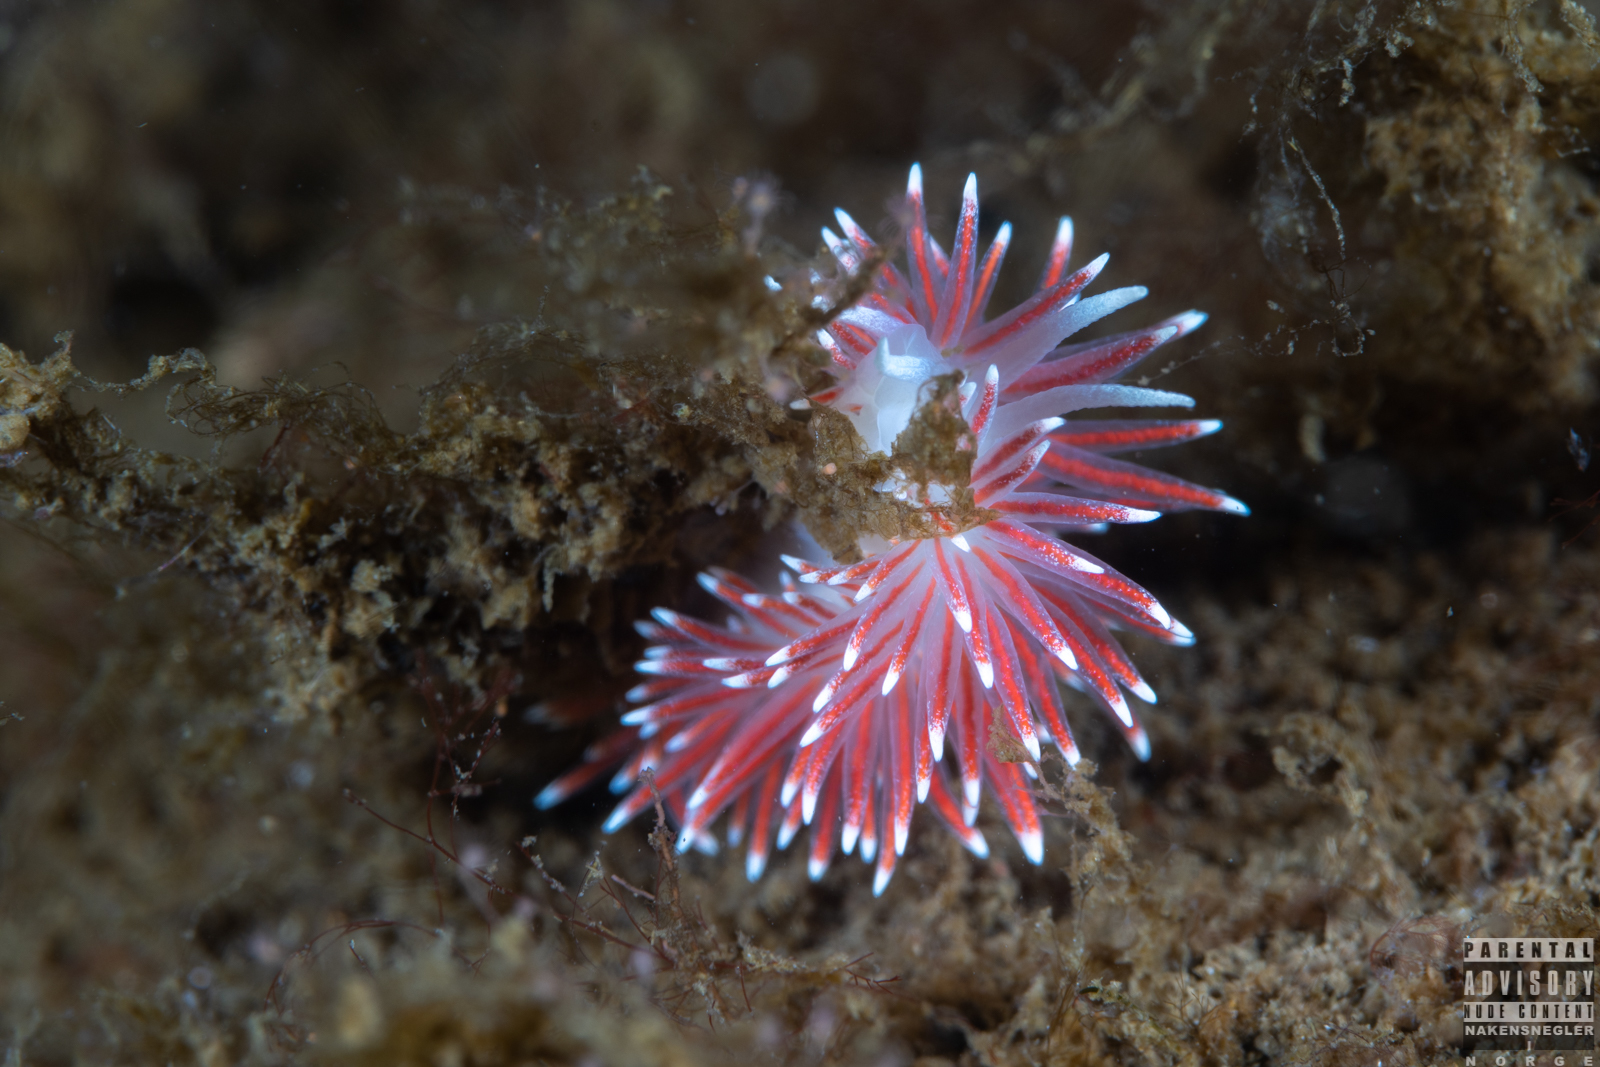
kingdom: Animalia
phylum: Mollusca
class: Gastropoda
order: Nudibranchia
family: Flabellinidae
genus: Carronella
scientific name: Carronella pellucida
